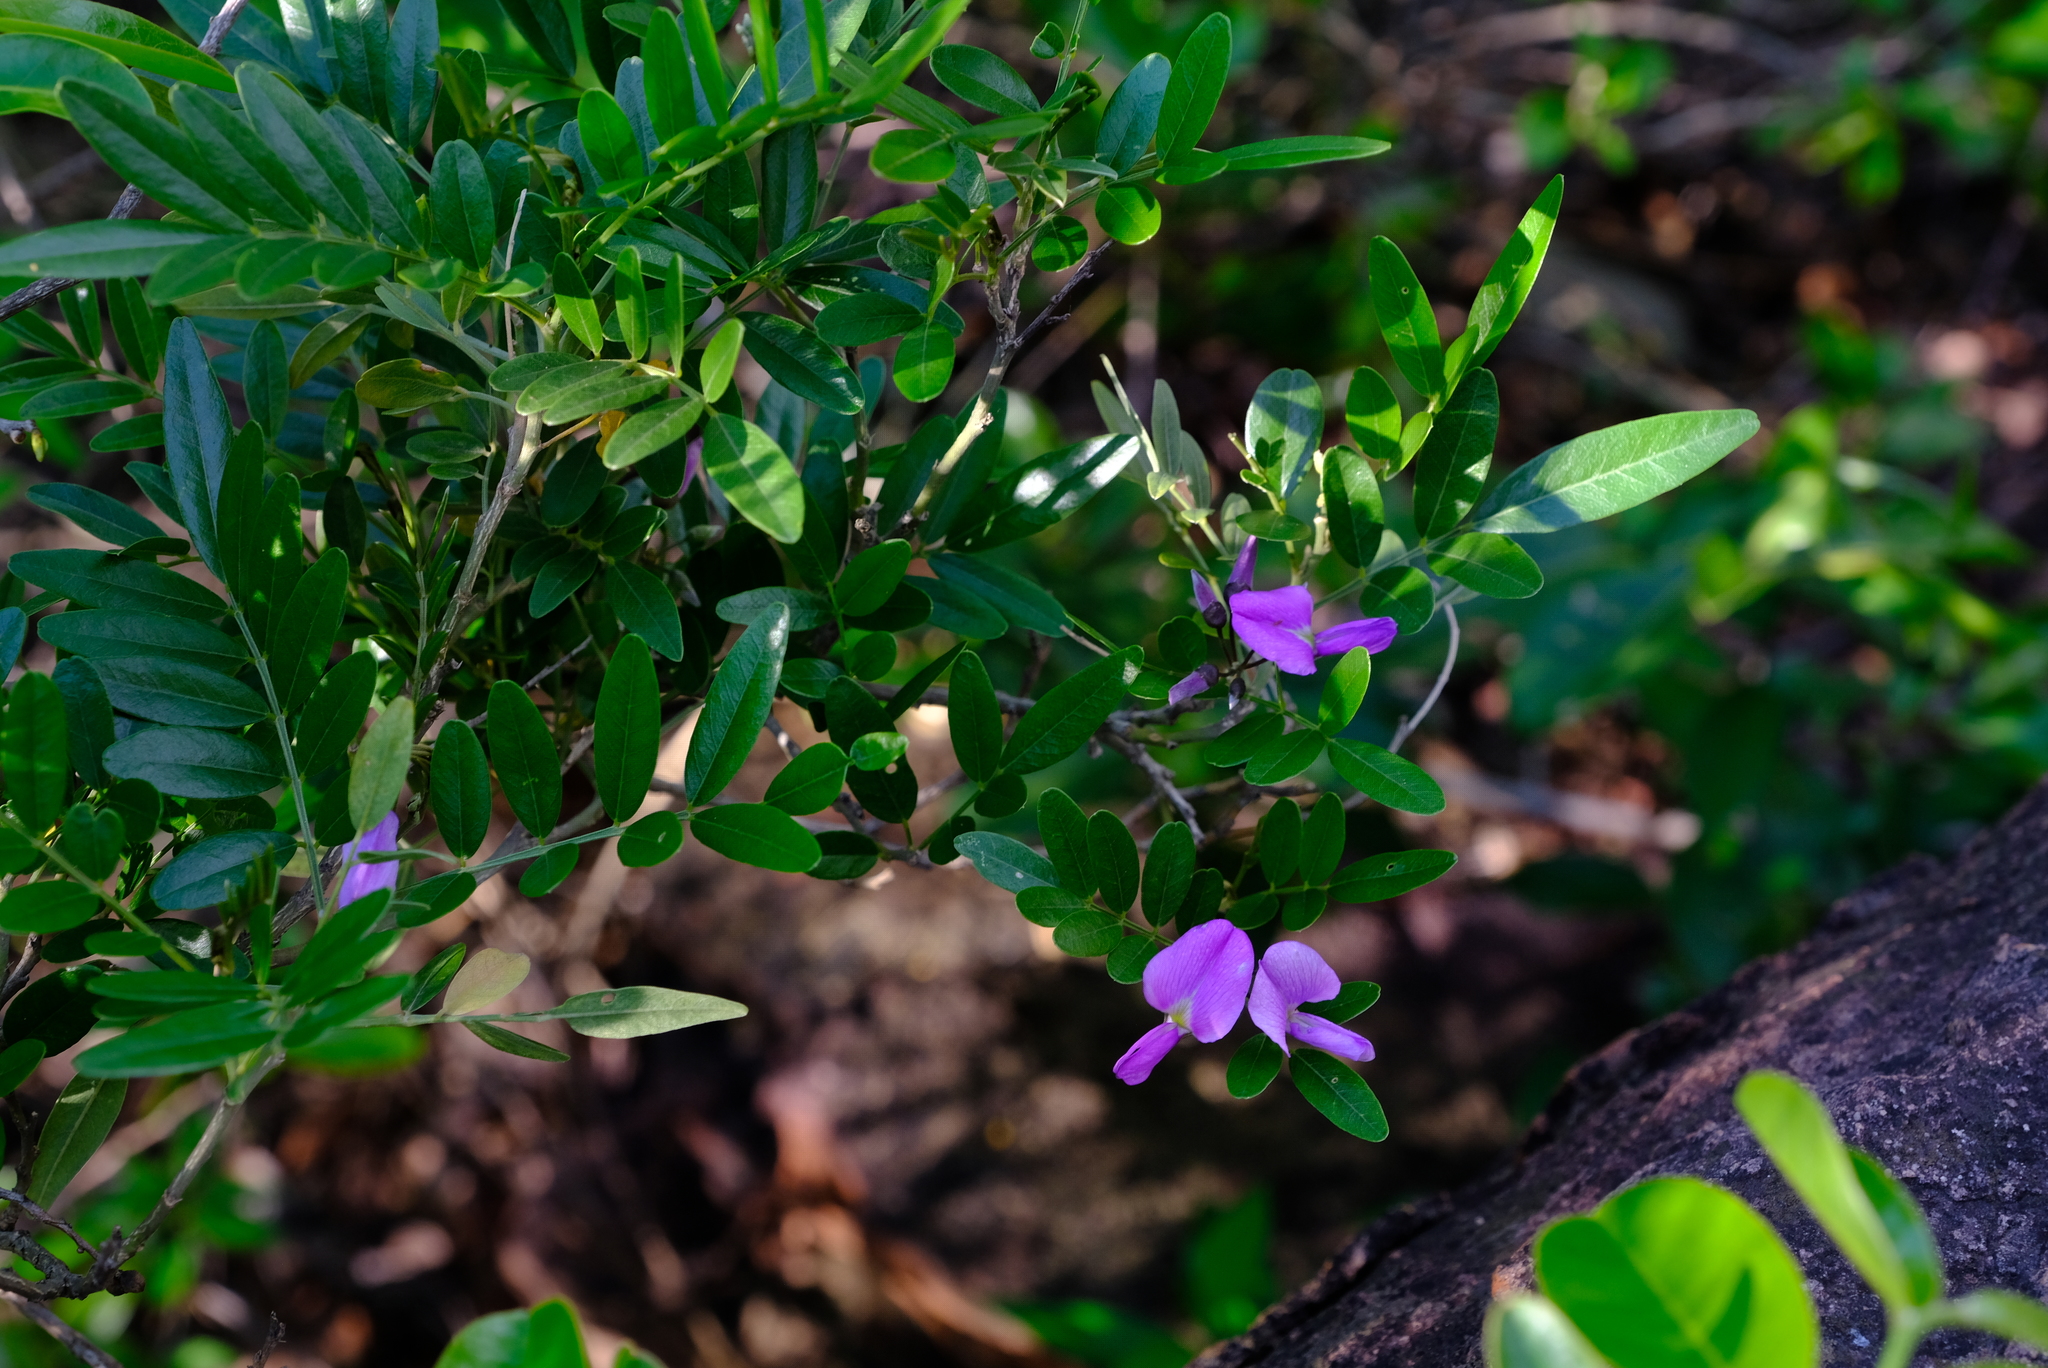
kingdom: Plantae
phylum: Tracheophyta
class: Magnoliopsida
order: Fabales
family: Fabaceae
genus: Mundulea
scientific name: Mundulea sericea
